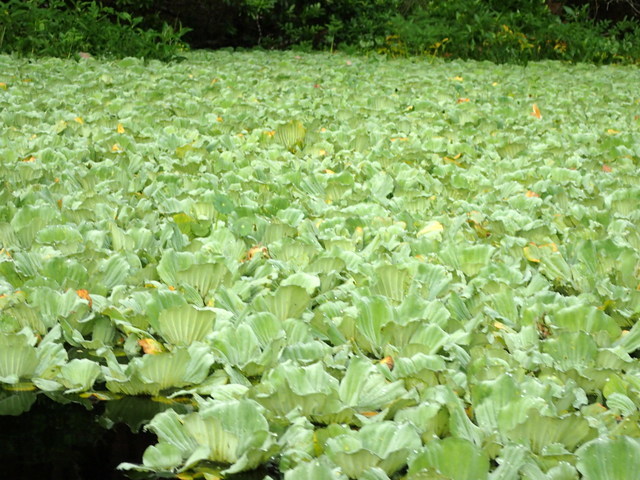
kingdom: Plantae
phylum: Tracheophyta
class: Liliopsida
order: Alismatales
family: Araceae
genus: Pistia
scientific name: Pistia stratiotes
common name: Water lettuce
